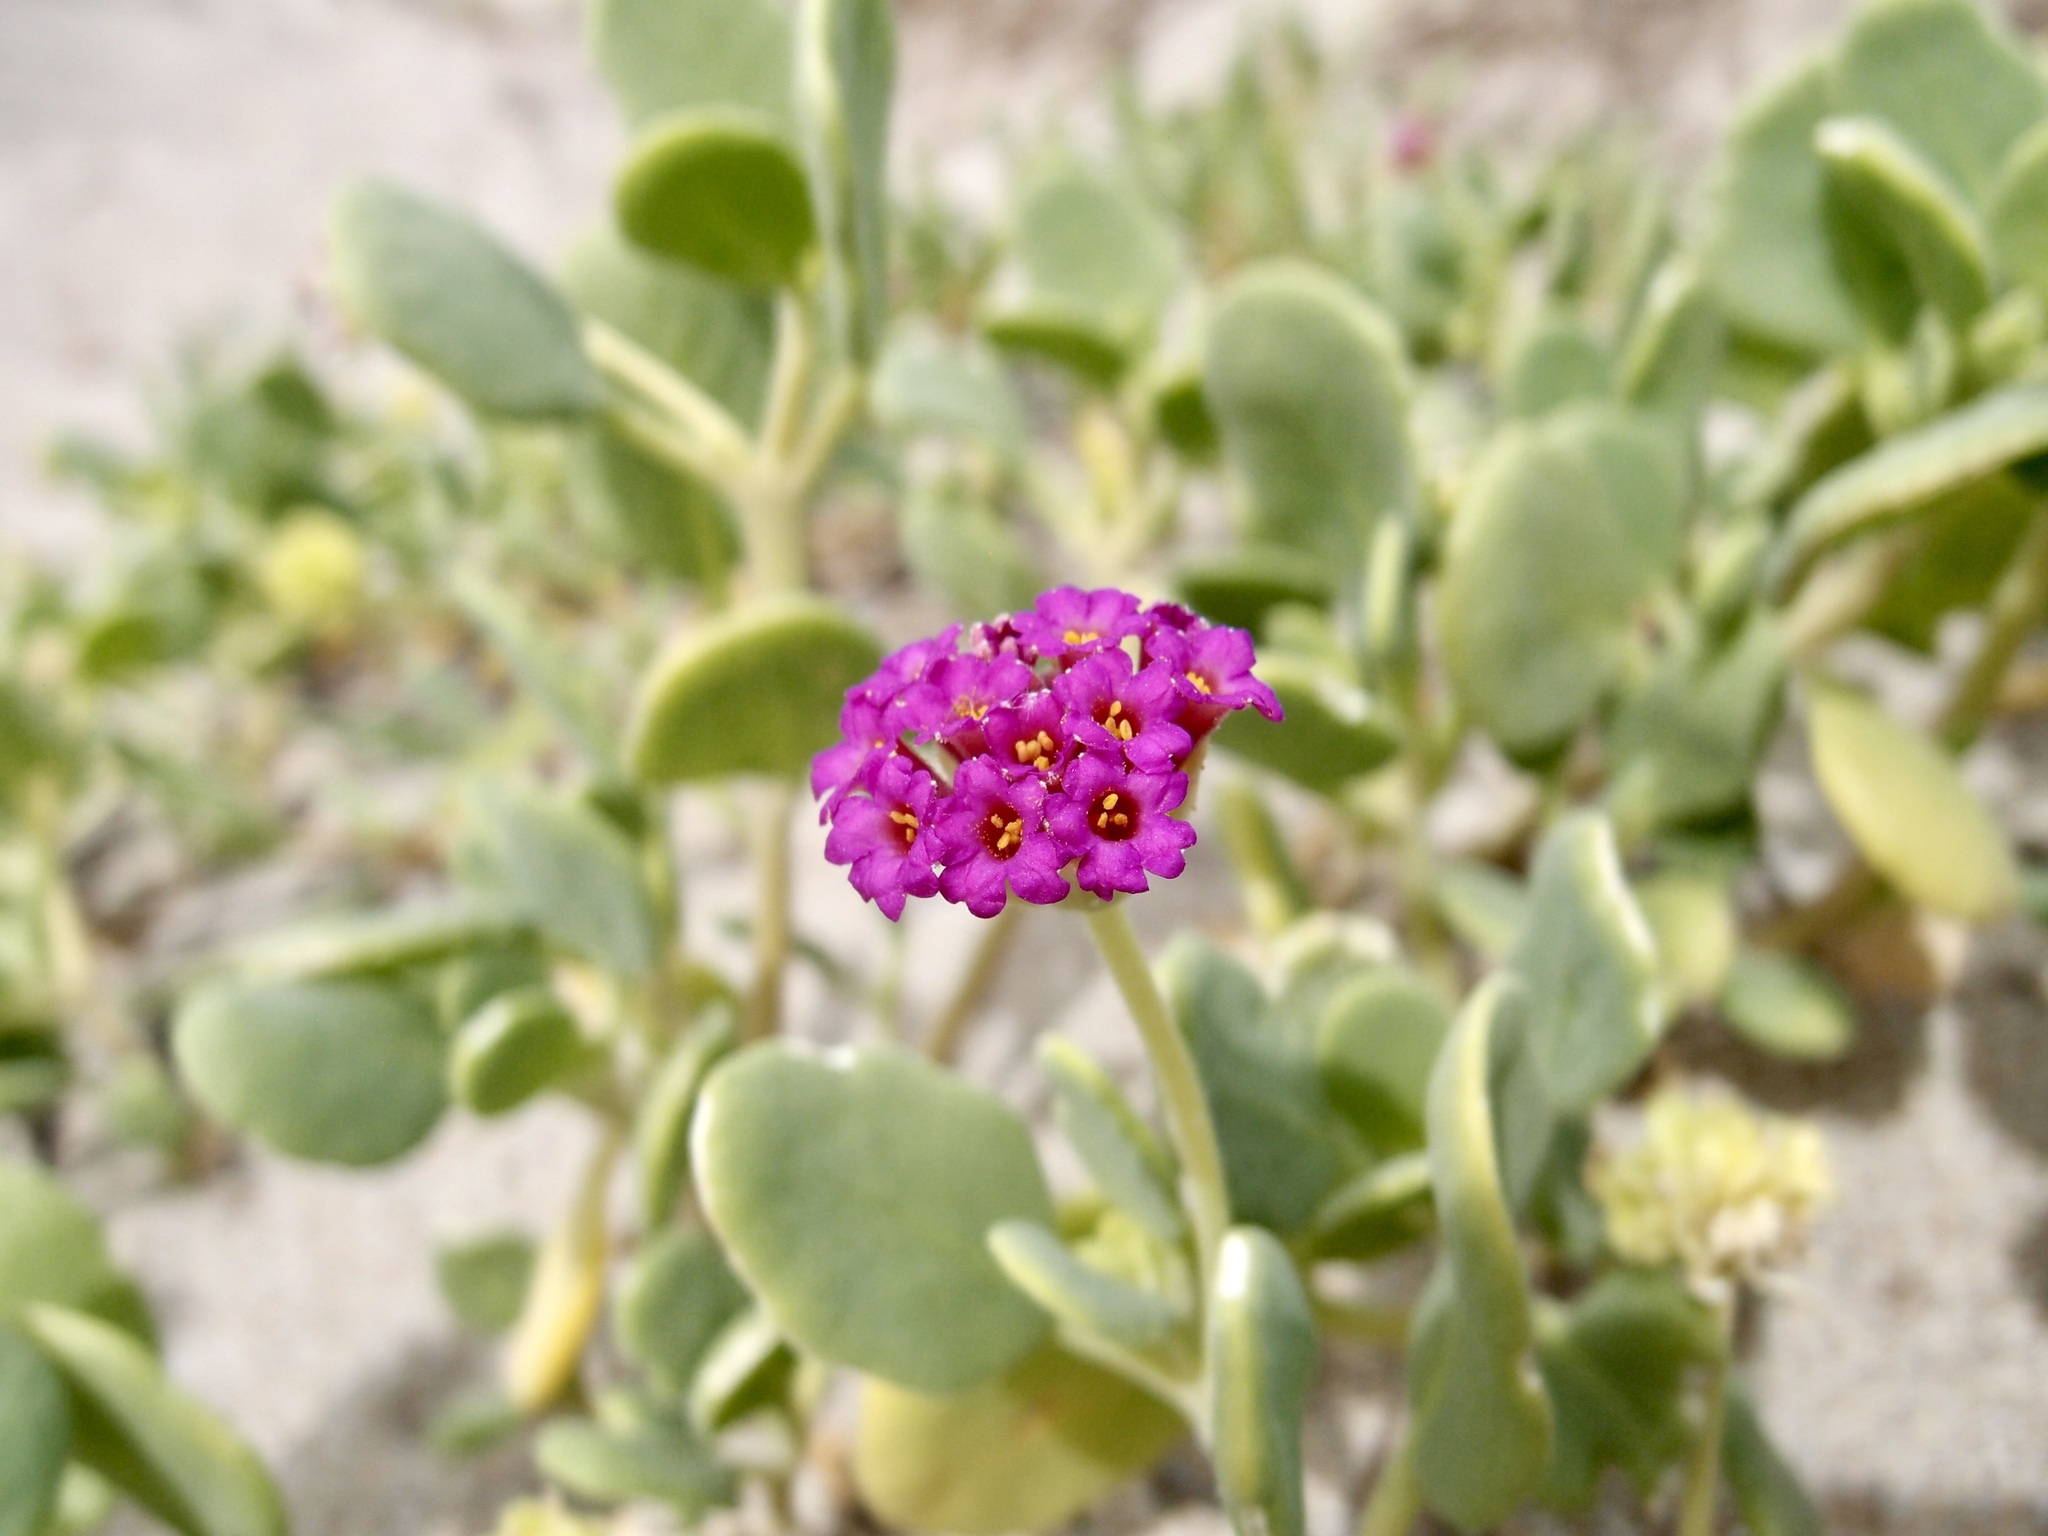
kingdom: Plantae
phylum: Tracheophyta
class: Magnoliopsida
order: Caryophyllales
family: Nyctaginaceae
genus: Abronia
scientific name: Abronia maritima
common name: Red sand-verbena
